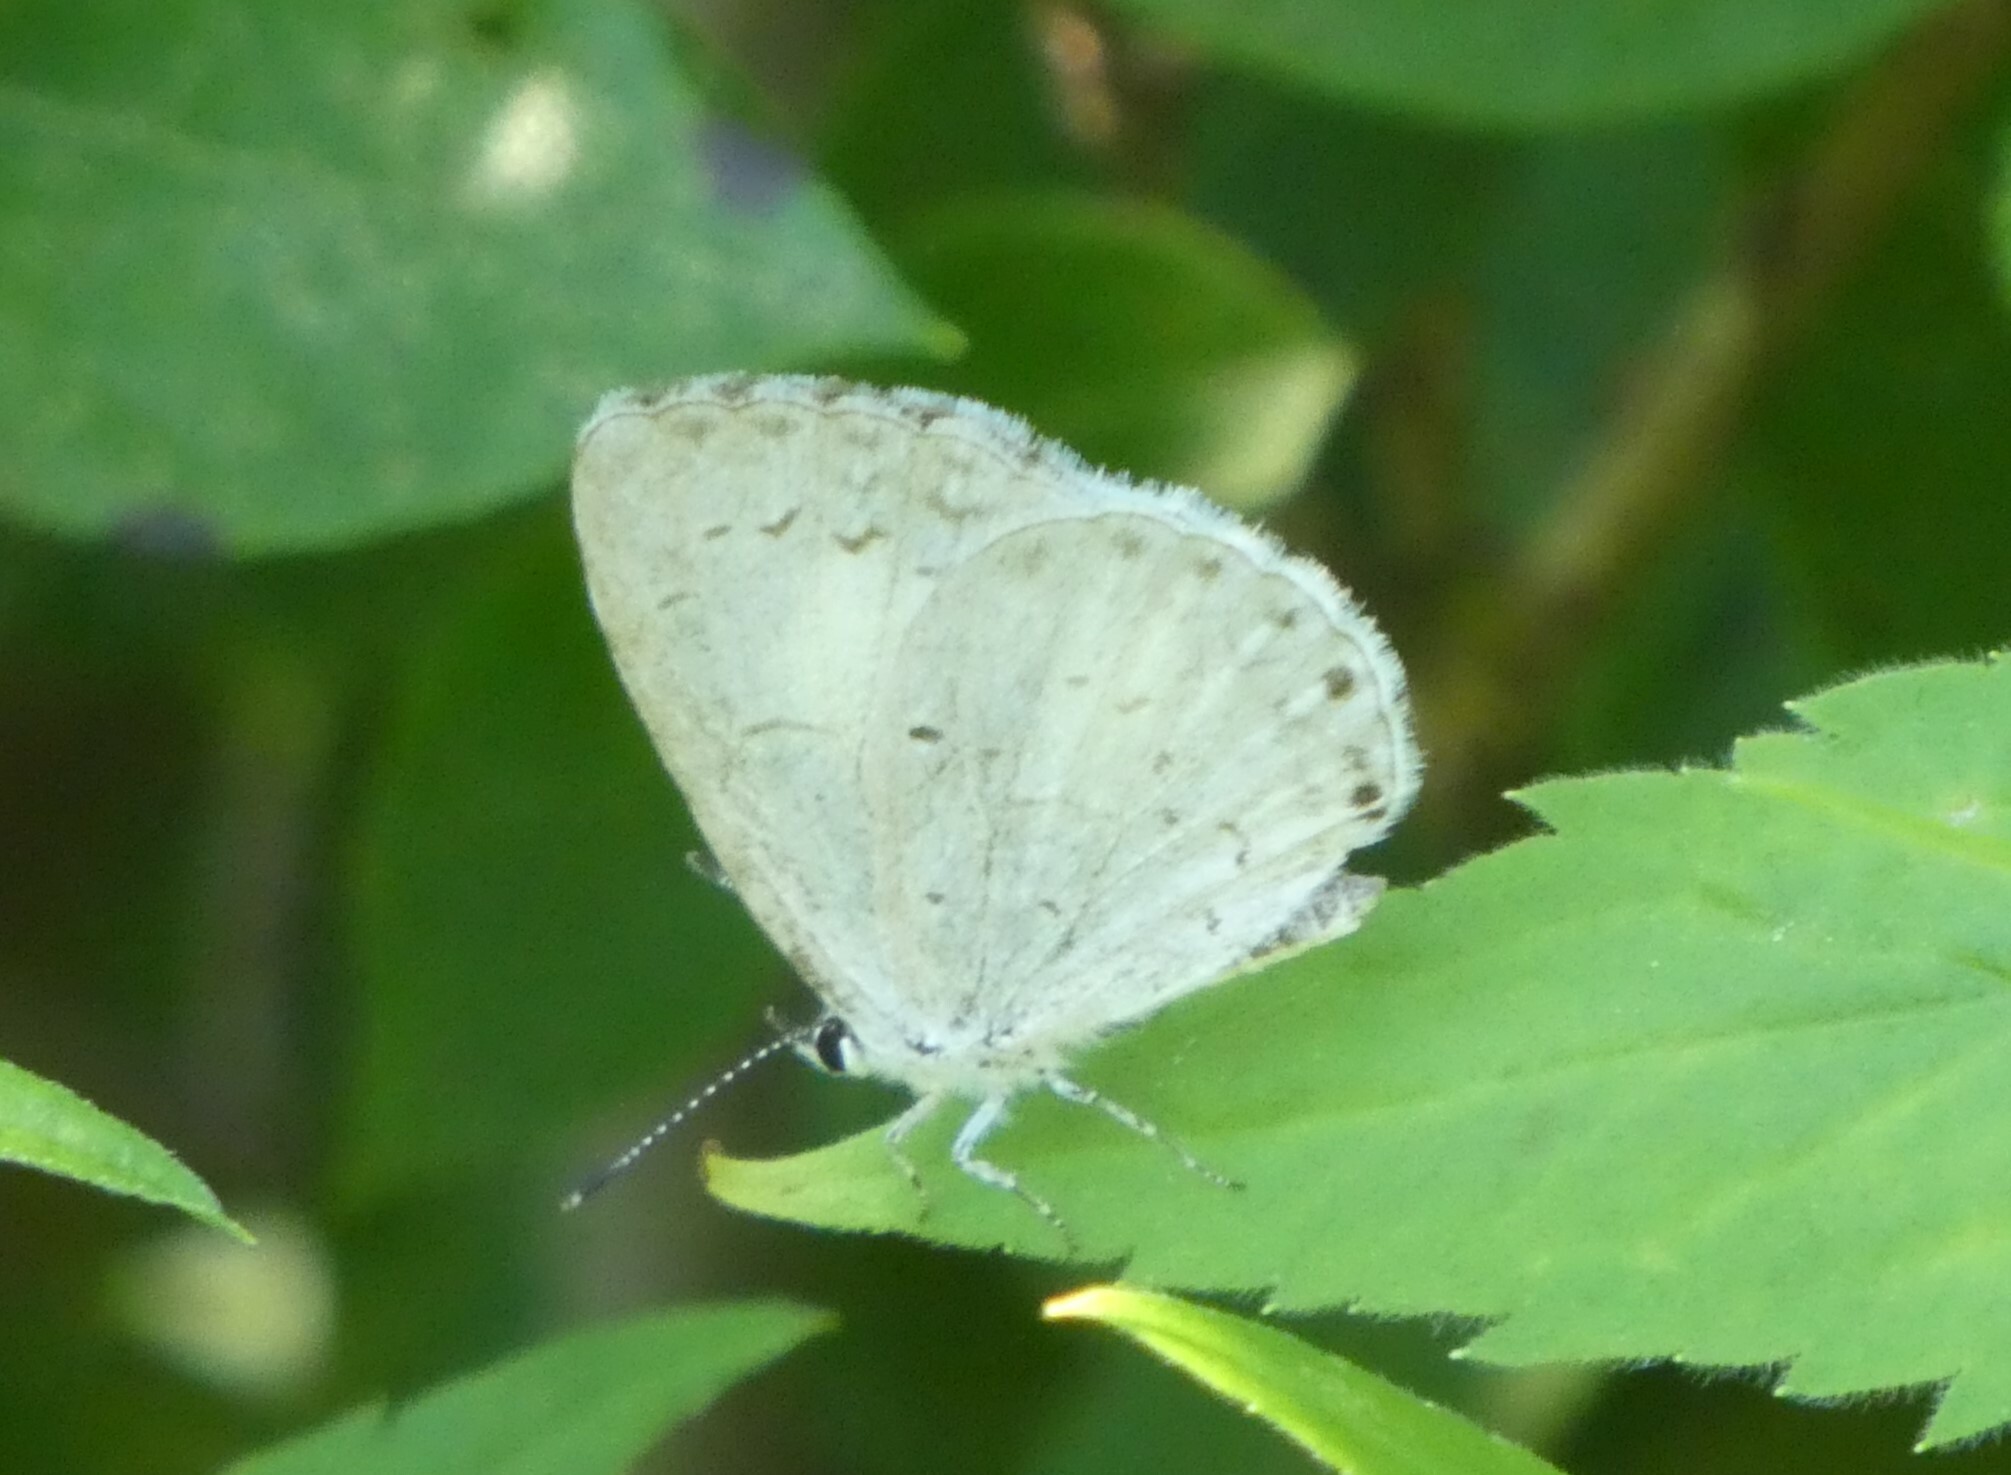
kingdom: Animalia
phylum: Arthropoda
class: Insecta
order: Lepidoptera
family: Lycaenidae
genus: Cyaniris
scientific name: Cyaniris neglecta
